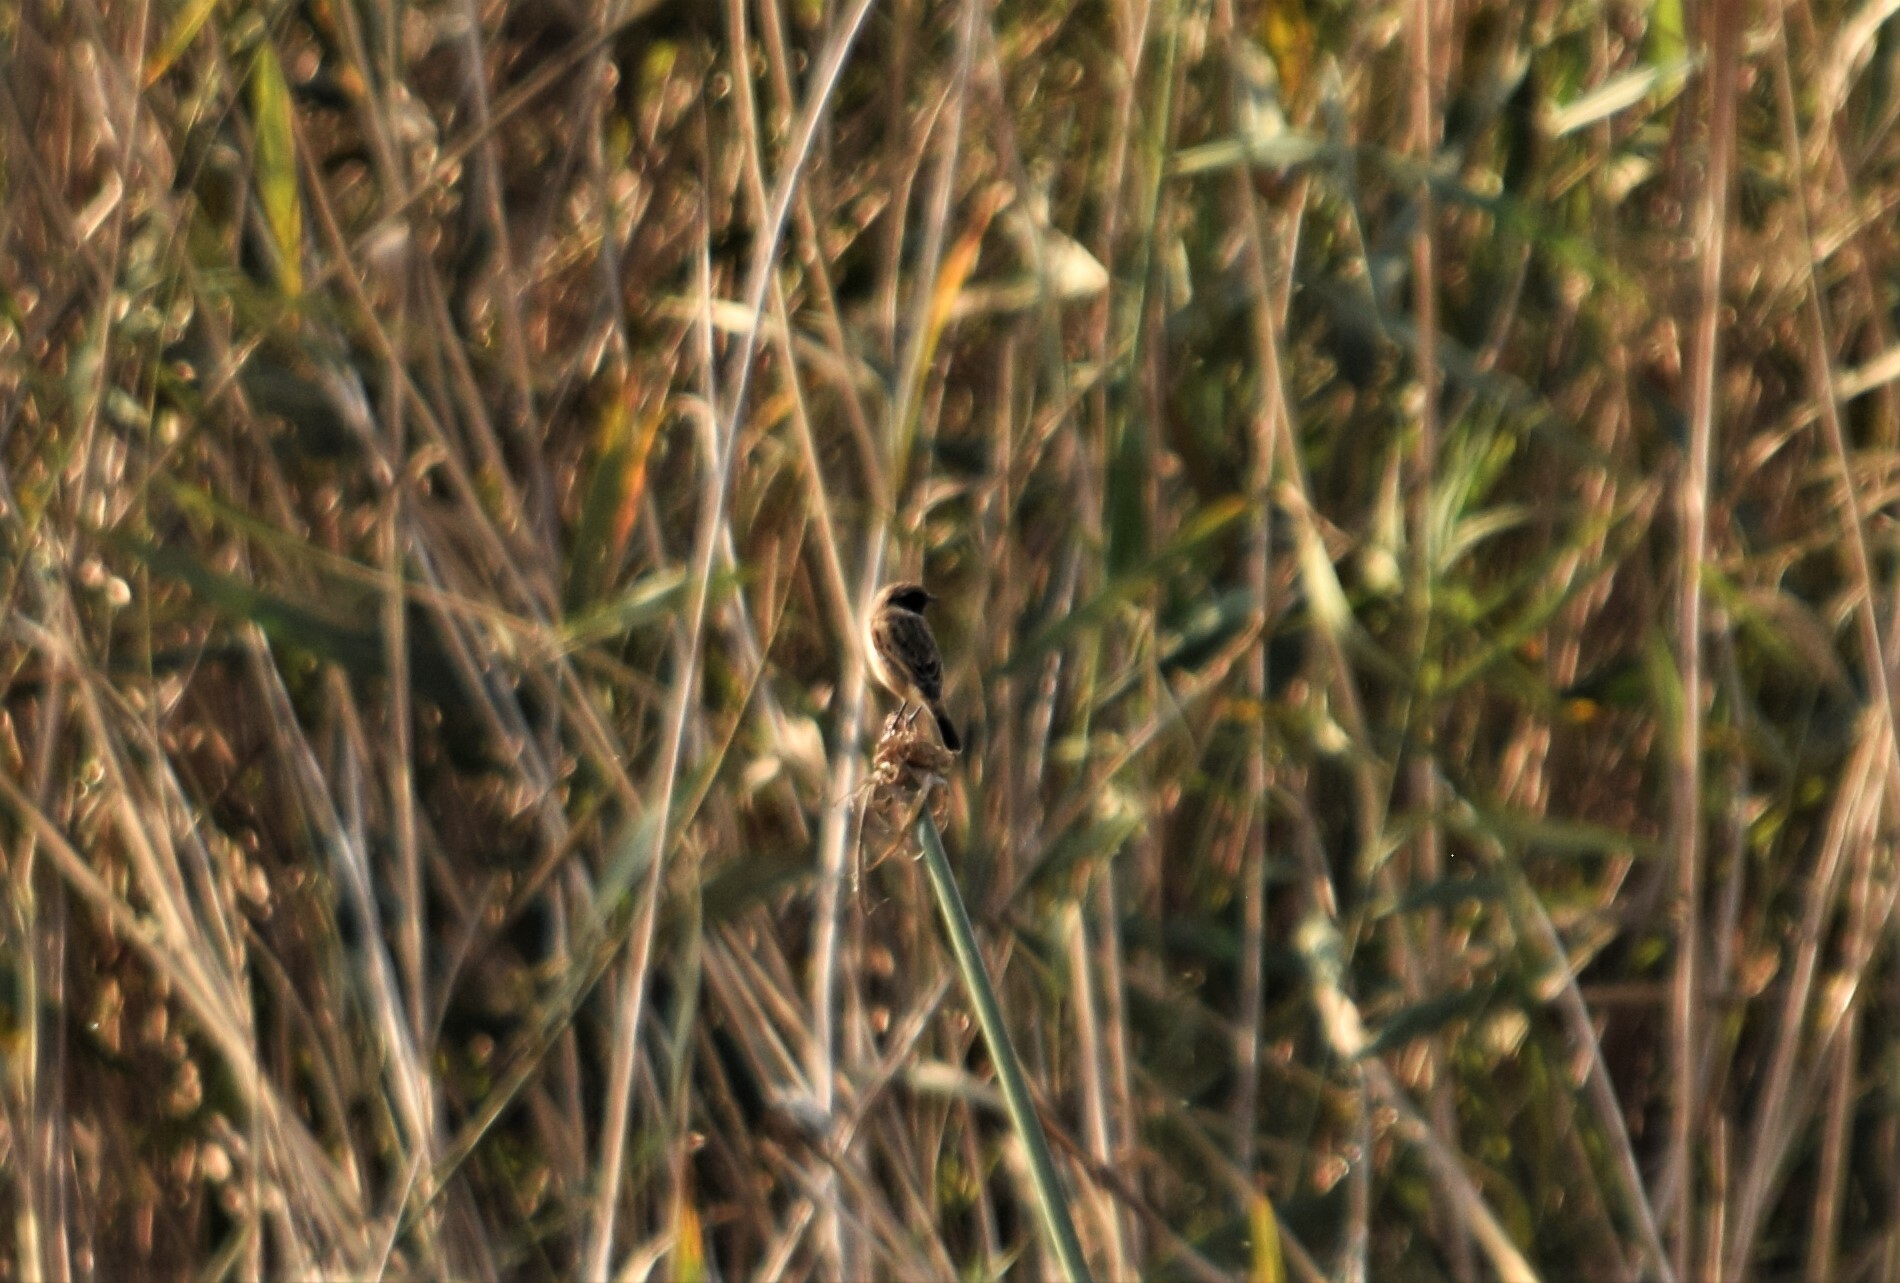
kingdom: Animalia
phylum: Chordata
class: Aves
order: Passeriformes
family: Muscicapidae
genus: Saxicola
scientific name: Saxicola rubicola
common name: European stonechat
